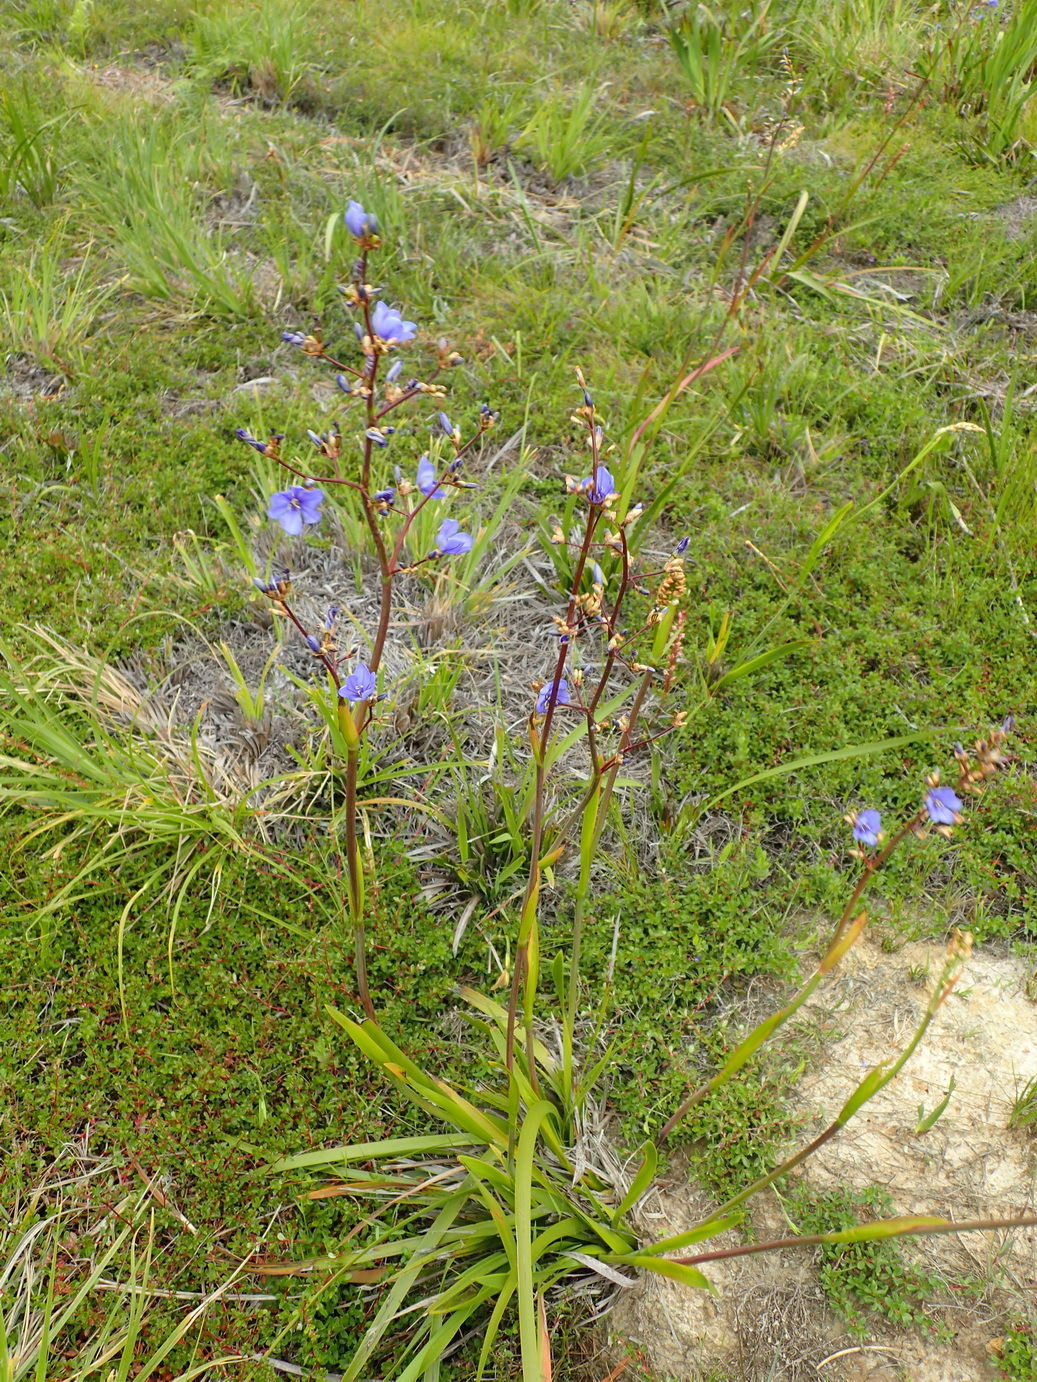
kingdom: Plantae
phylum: Tracheophyta
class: Liliopsida
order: Asparagales
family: Iridaceae
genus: Aristea
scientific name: Aristea bakeri
